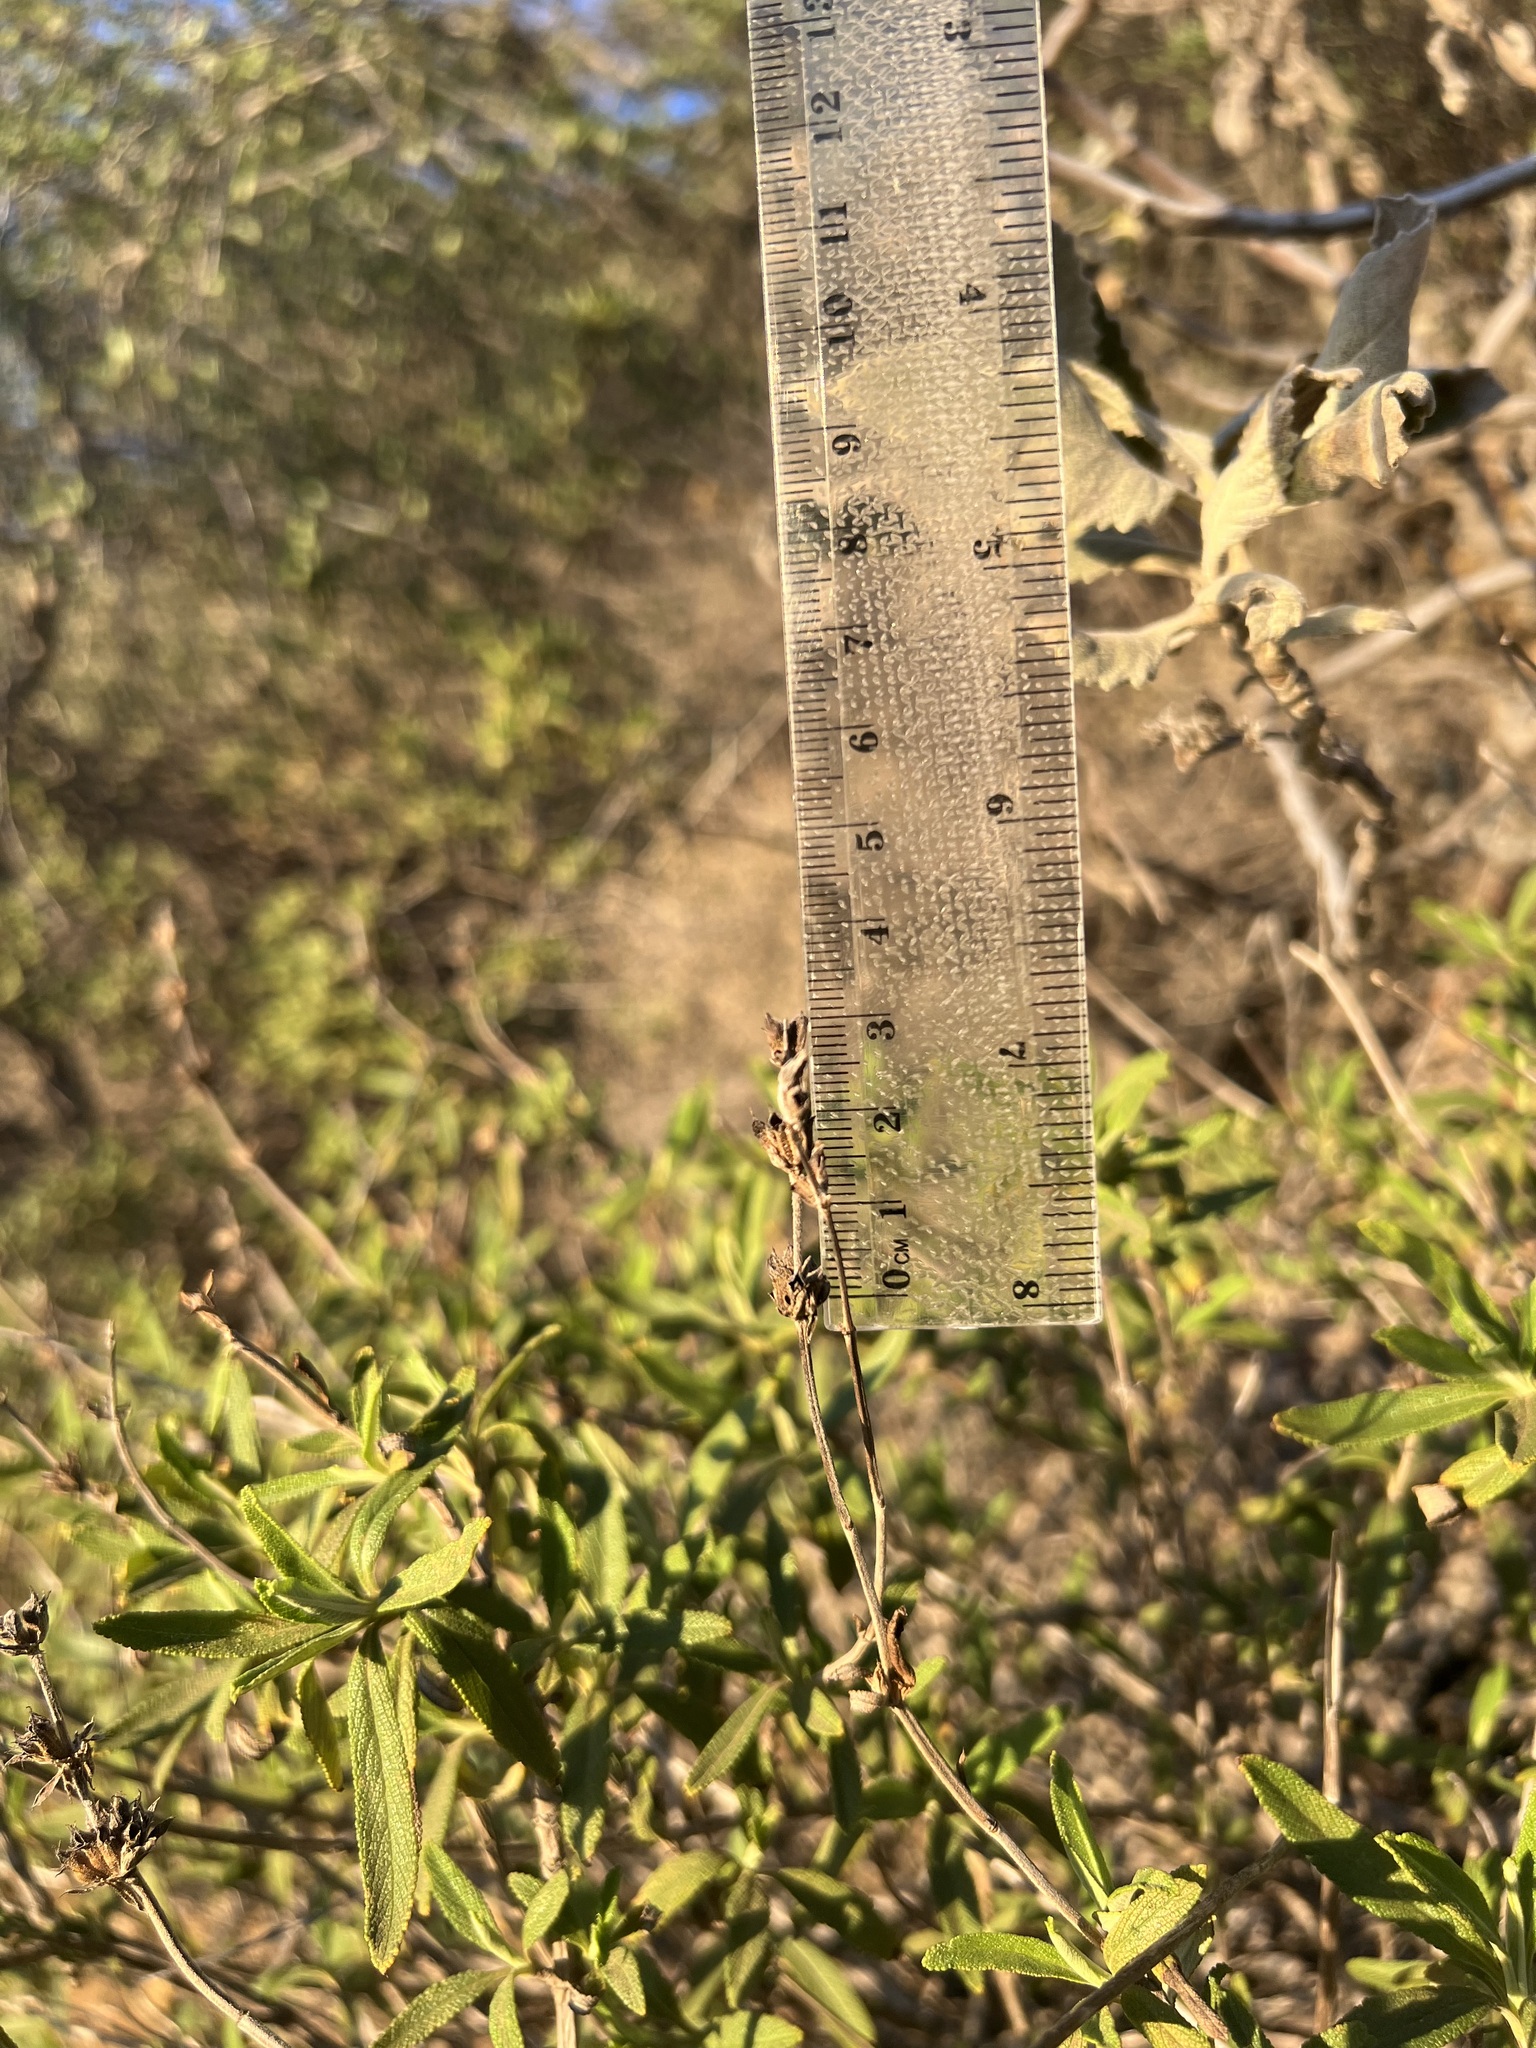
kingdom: Plantae
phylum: Tracheophyta
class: Magnoliopsida
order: Lamiales
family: Lamiaceae
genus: Salvia
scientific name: Salvia mellifera
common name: Black sage
